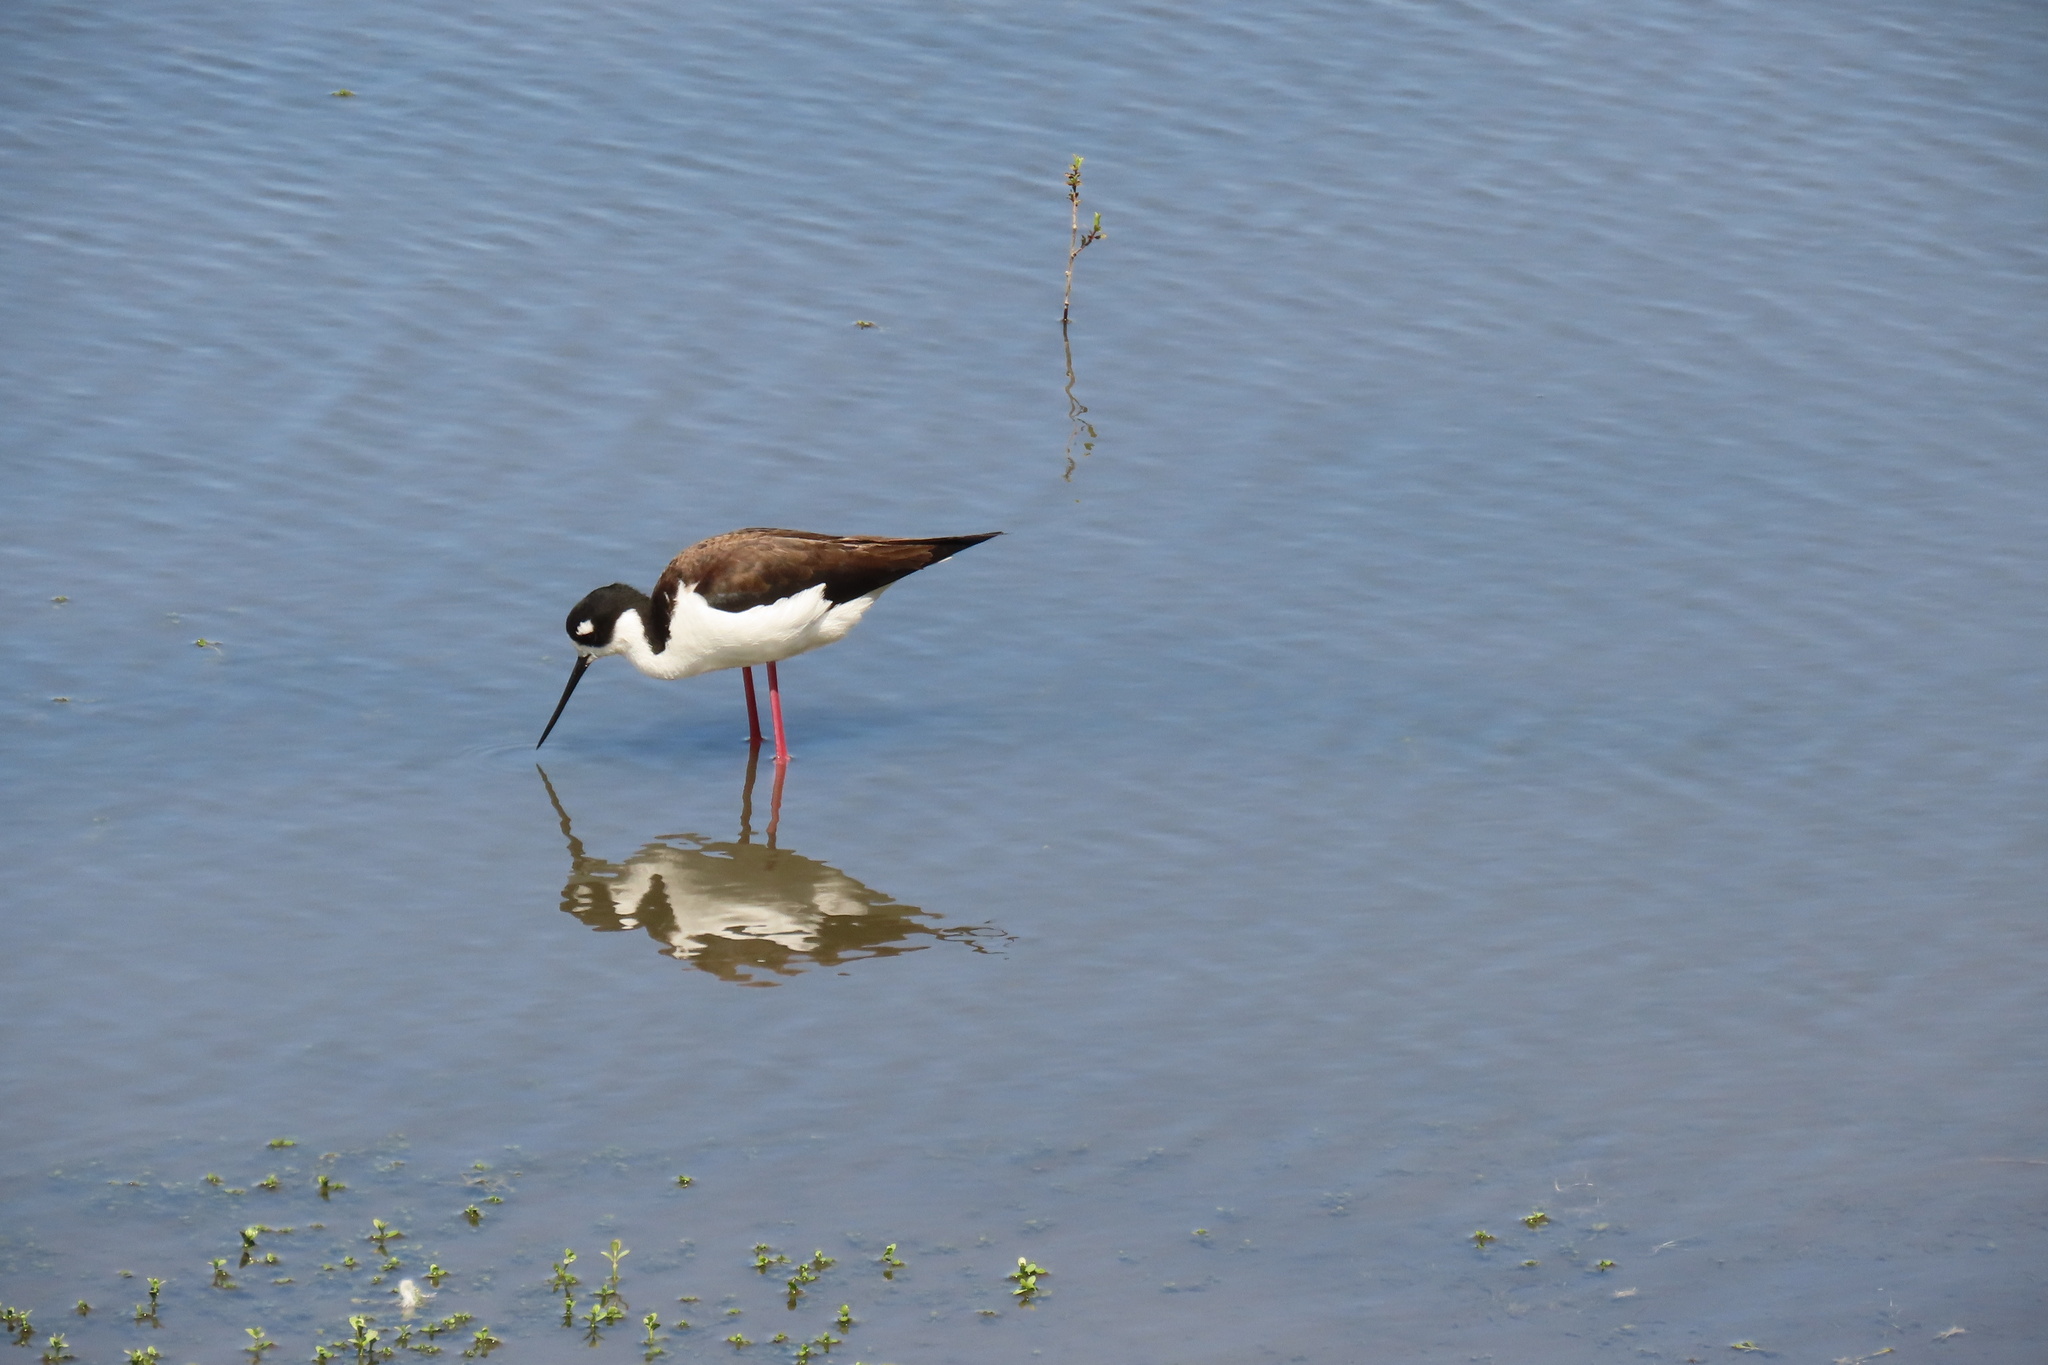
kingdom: Animalia
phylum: Chordata
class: Aves
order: Charadriiformes
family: Recurvirostridae
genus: Himantopus
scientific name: Himantopus mexicanus
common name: Black-necked stilt
